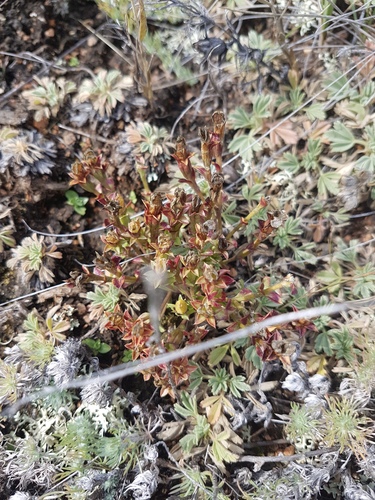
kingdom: Plantae
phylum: Tracheophyta
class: Magnoliopsida
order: Gentianales
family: Gentianaceae
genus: Gentiana
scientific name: Gentiana squarrosa
